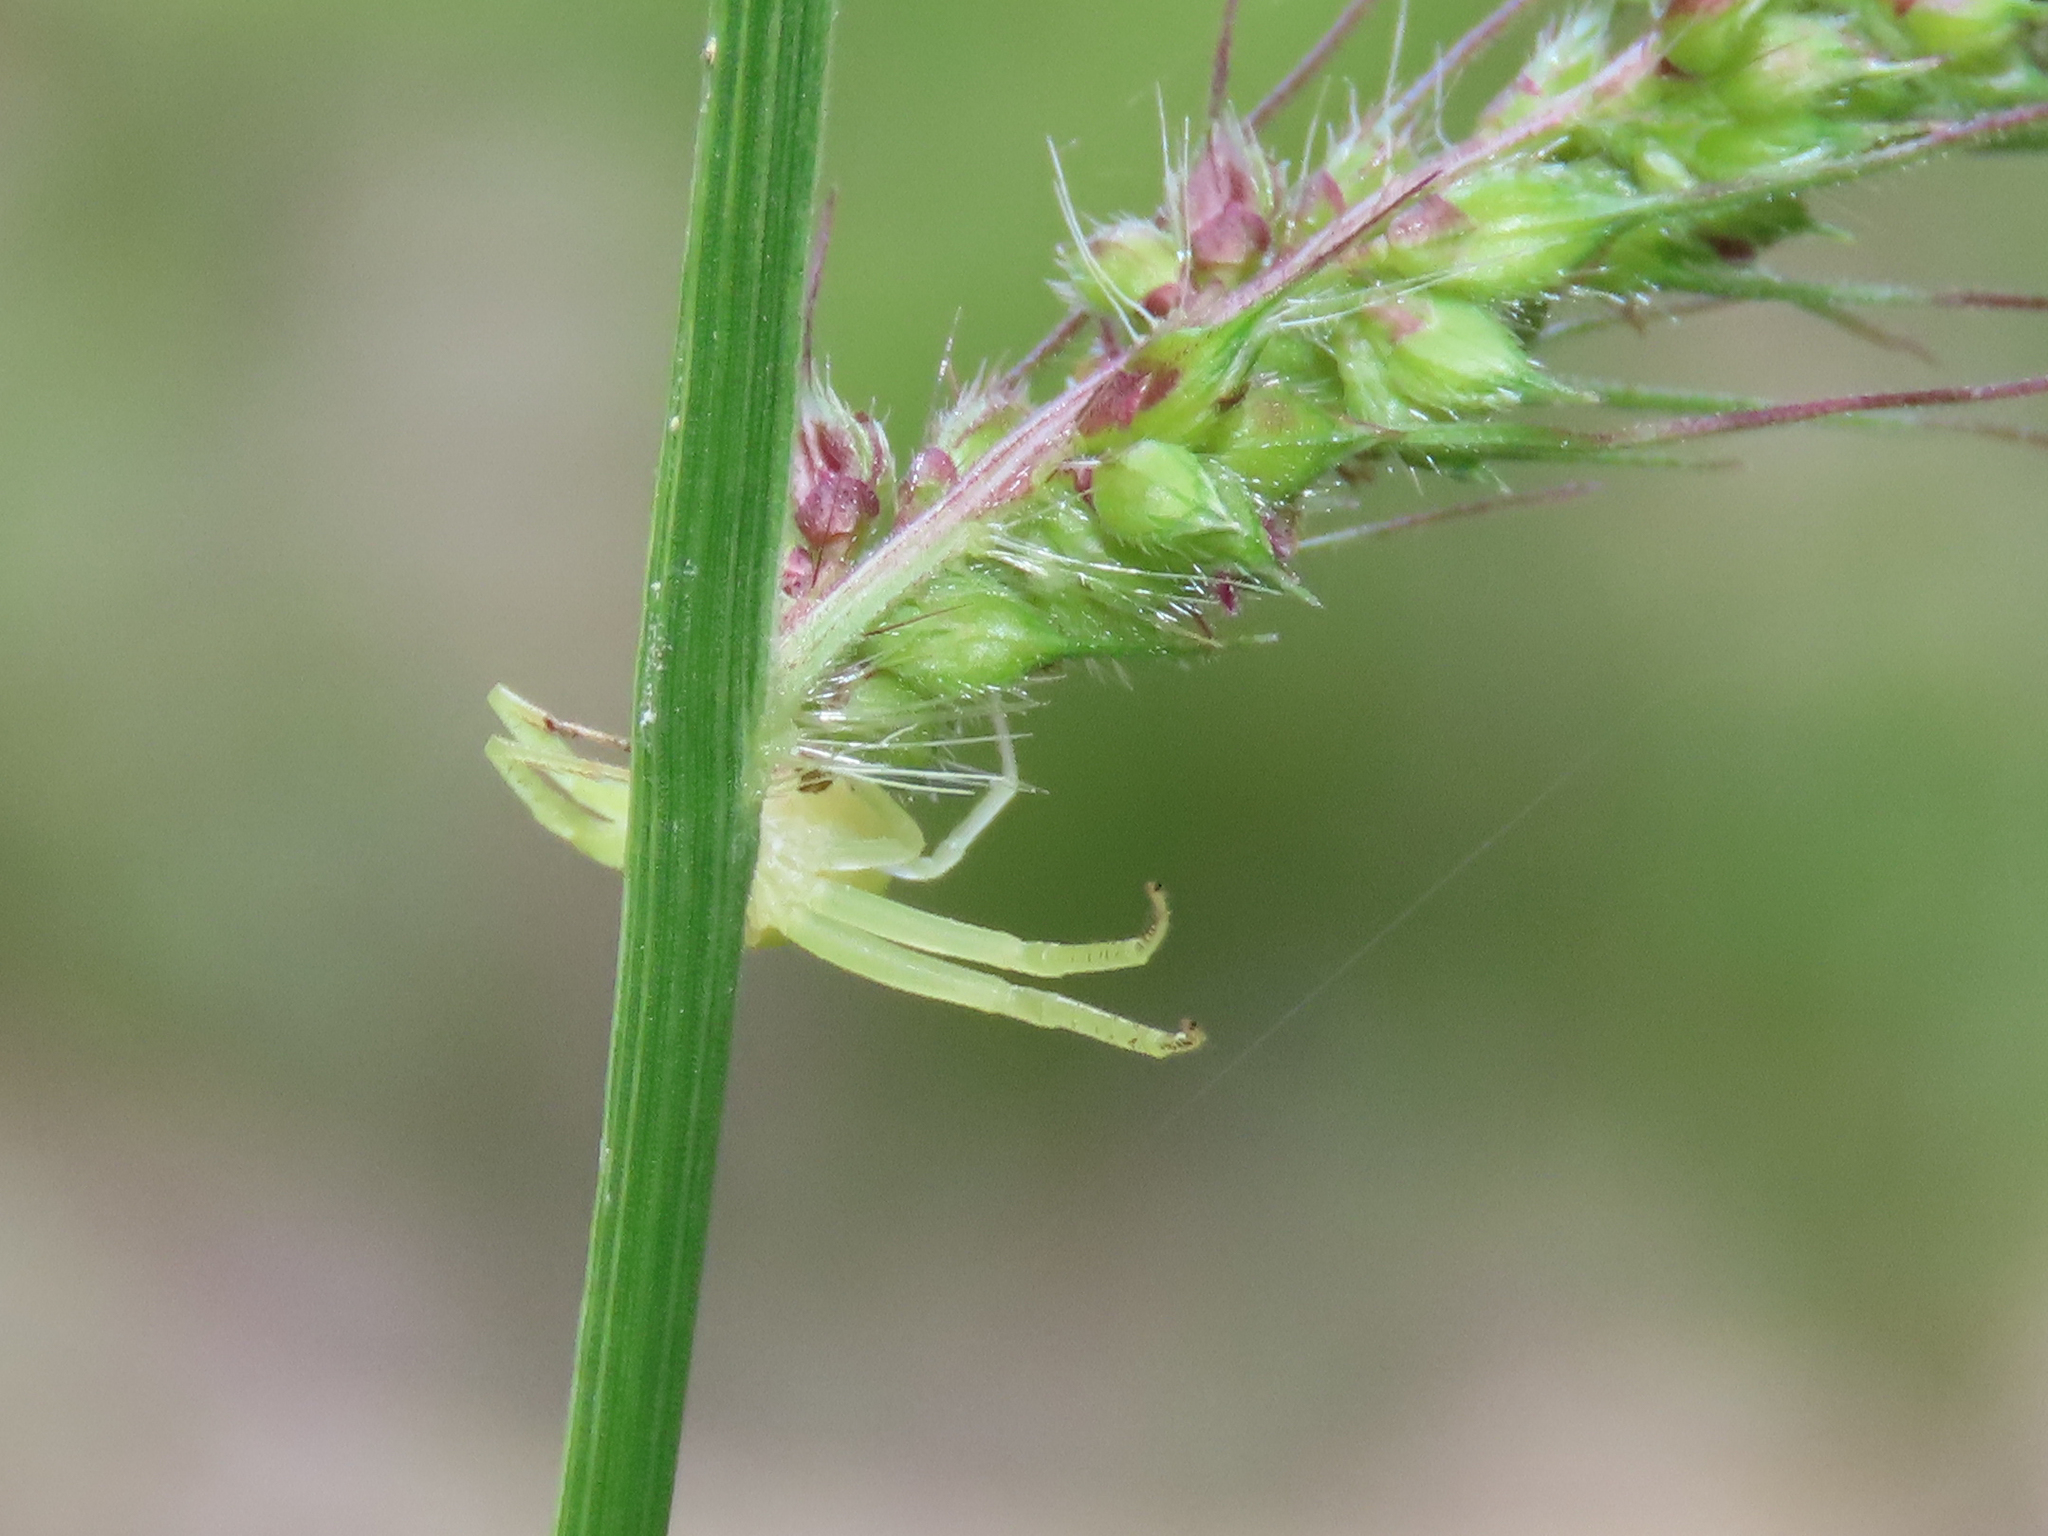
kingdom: Animalia
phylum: Arthropoda
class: Arachnida
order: Araneae
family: Thomisidae
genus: Misumessus
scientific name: Misumessus oblongus
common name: American green crab spider
